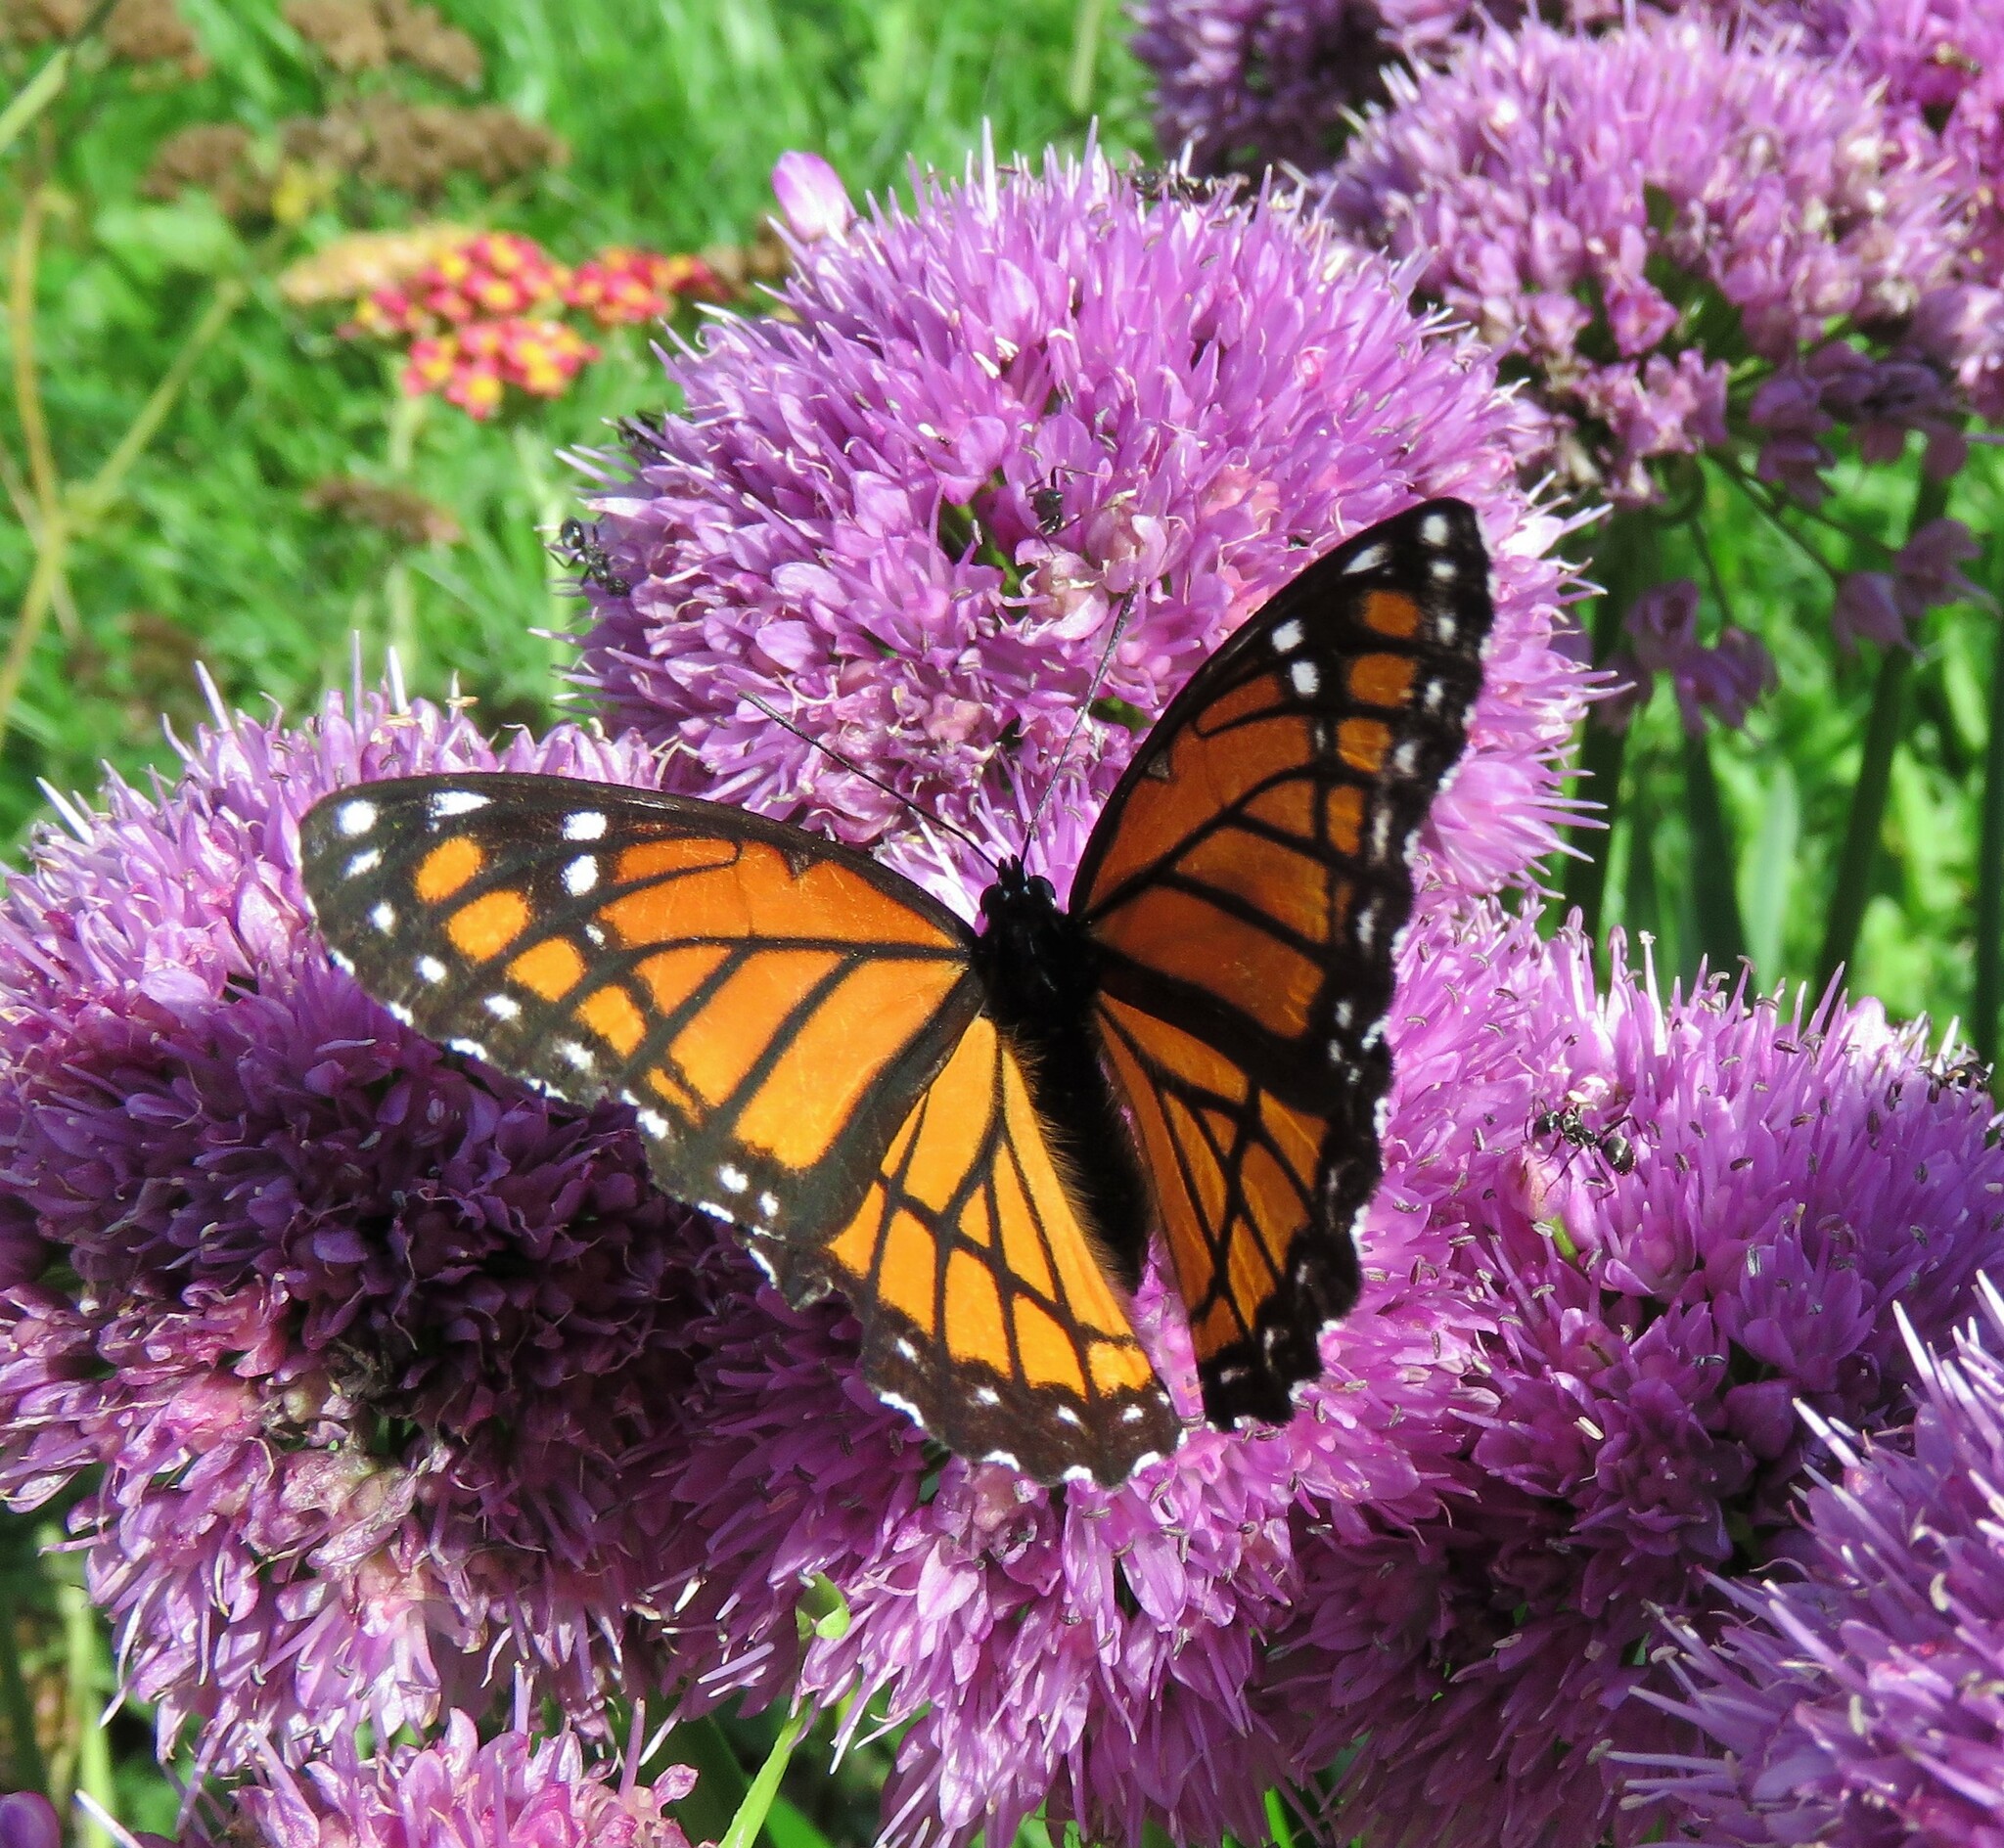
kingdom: Animalia
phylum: Arthropoda
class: Insecta
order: Lepidoptera
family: Nymphalidae
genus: Limenitis
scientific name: Limenitis archippus
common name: Viceroy
